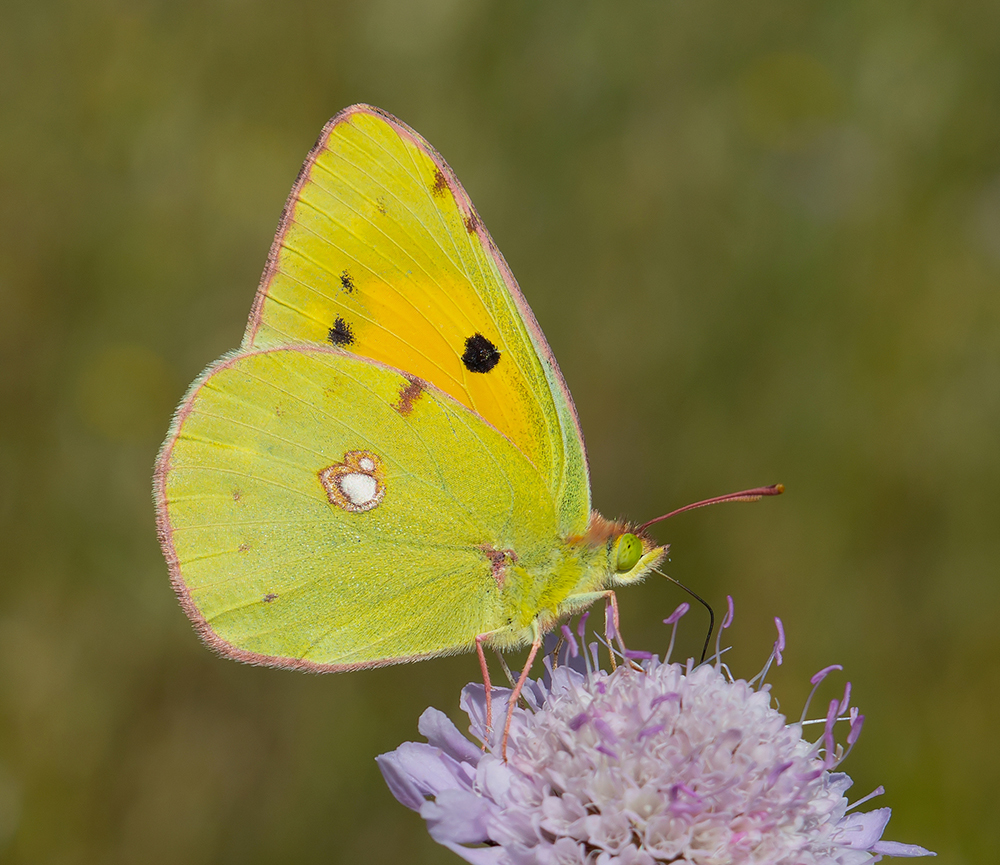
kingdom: Animalia
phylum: Arthropoda
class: Insecta
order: Lepidoptera
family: Pieridae
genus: Colias
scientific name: Colias croceus
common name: Clouded yellow
